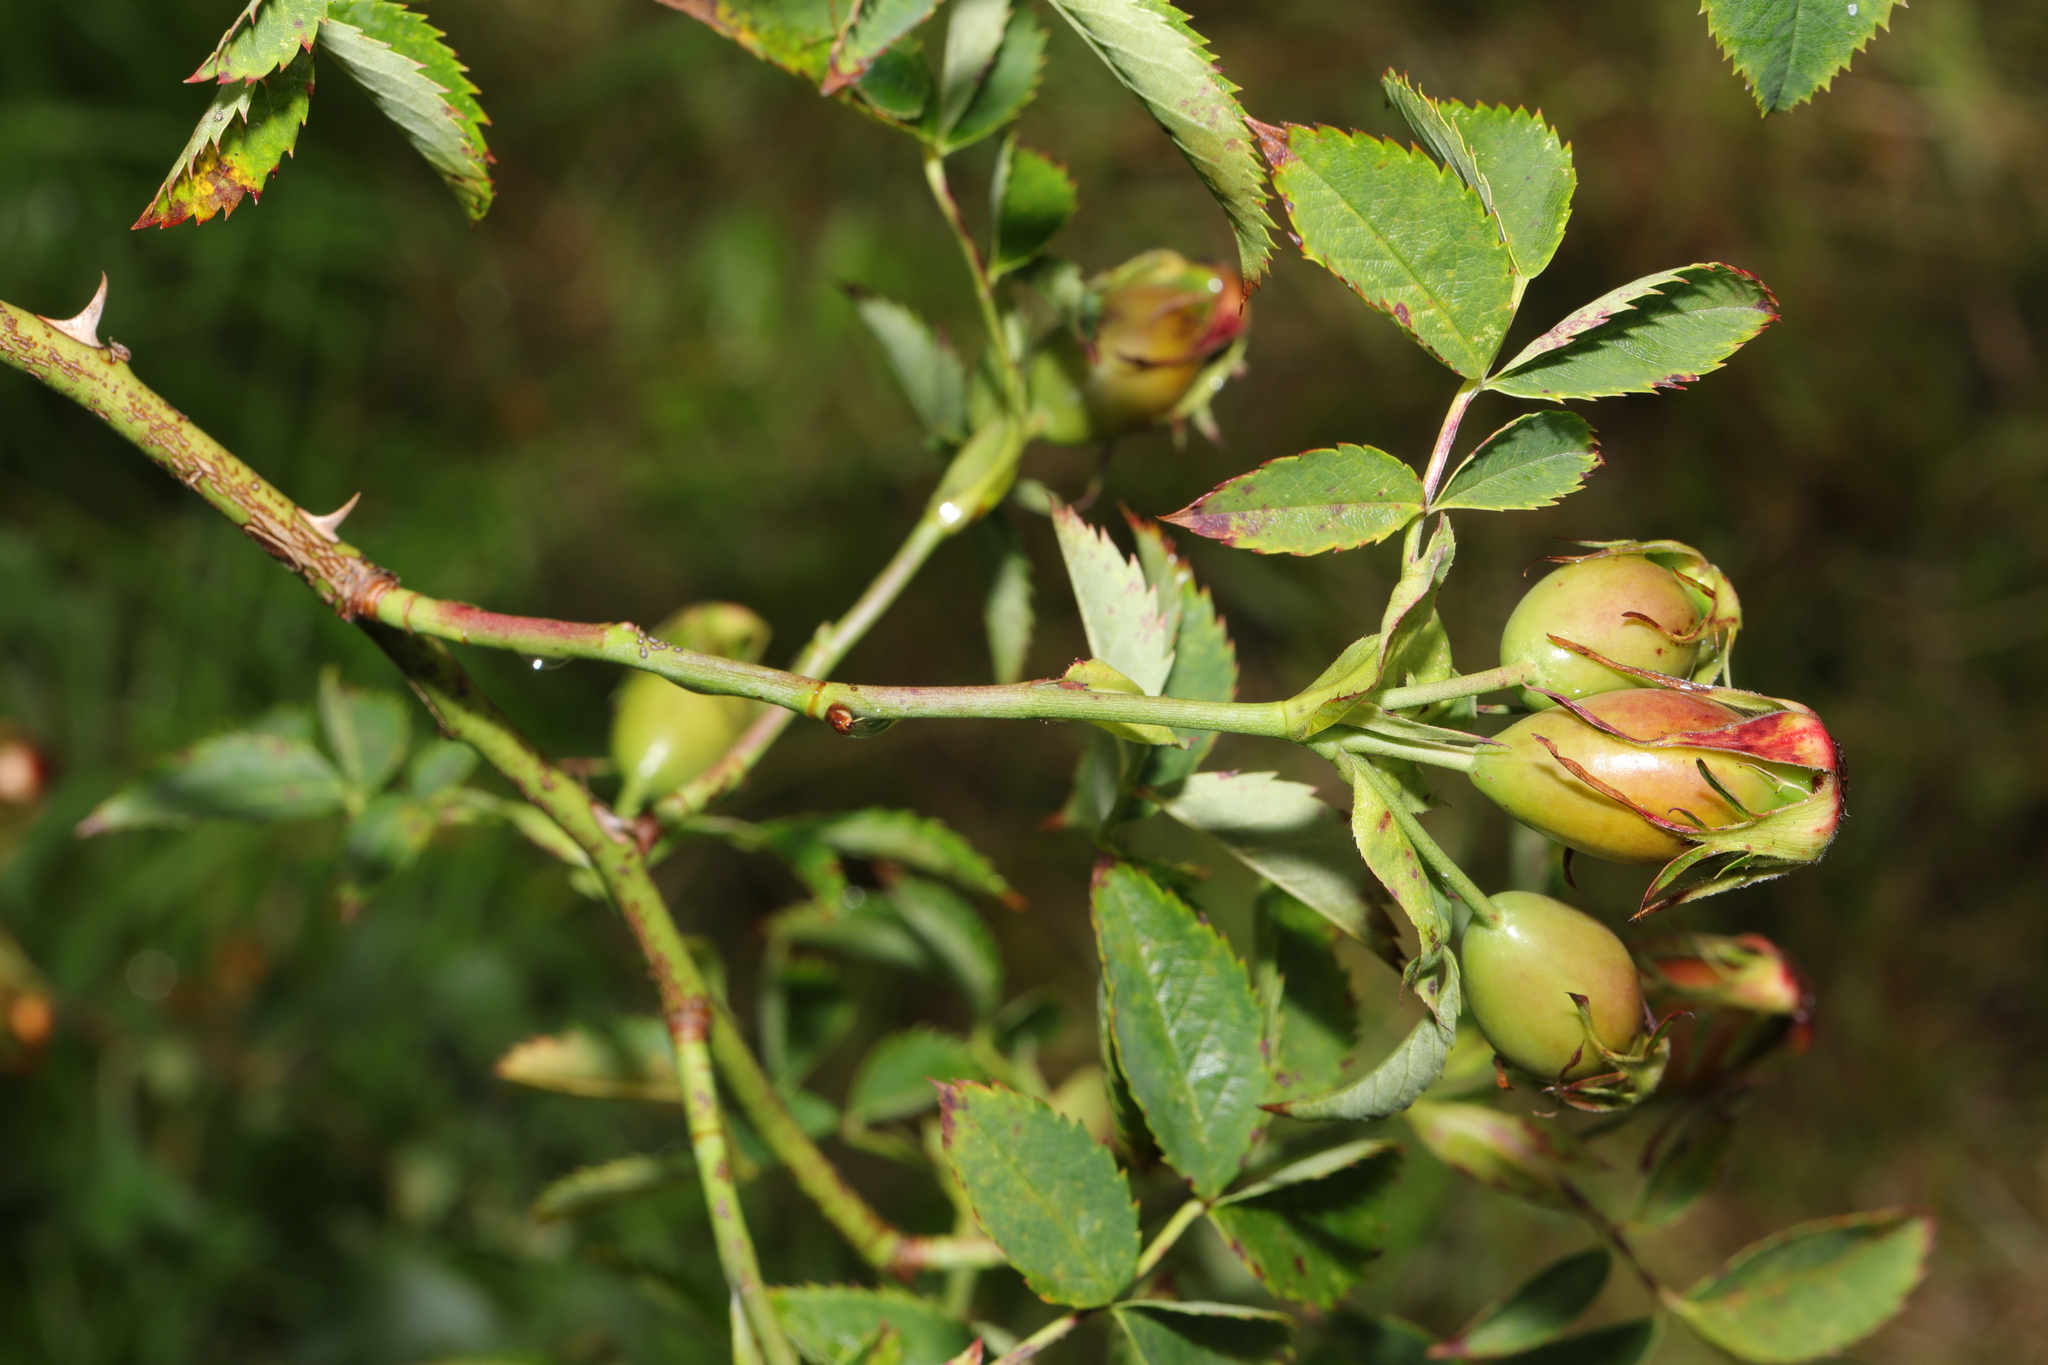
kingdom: Plantae
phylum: Tracheophyta
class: Magnoliopsida
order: Rosales
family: Rosaceae
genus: Rosa
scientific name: Rosa canina
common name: Dog rose
